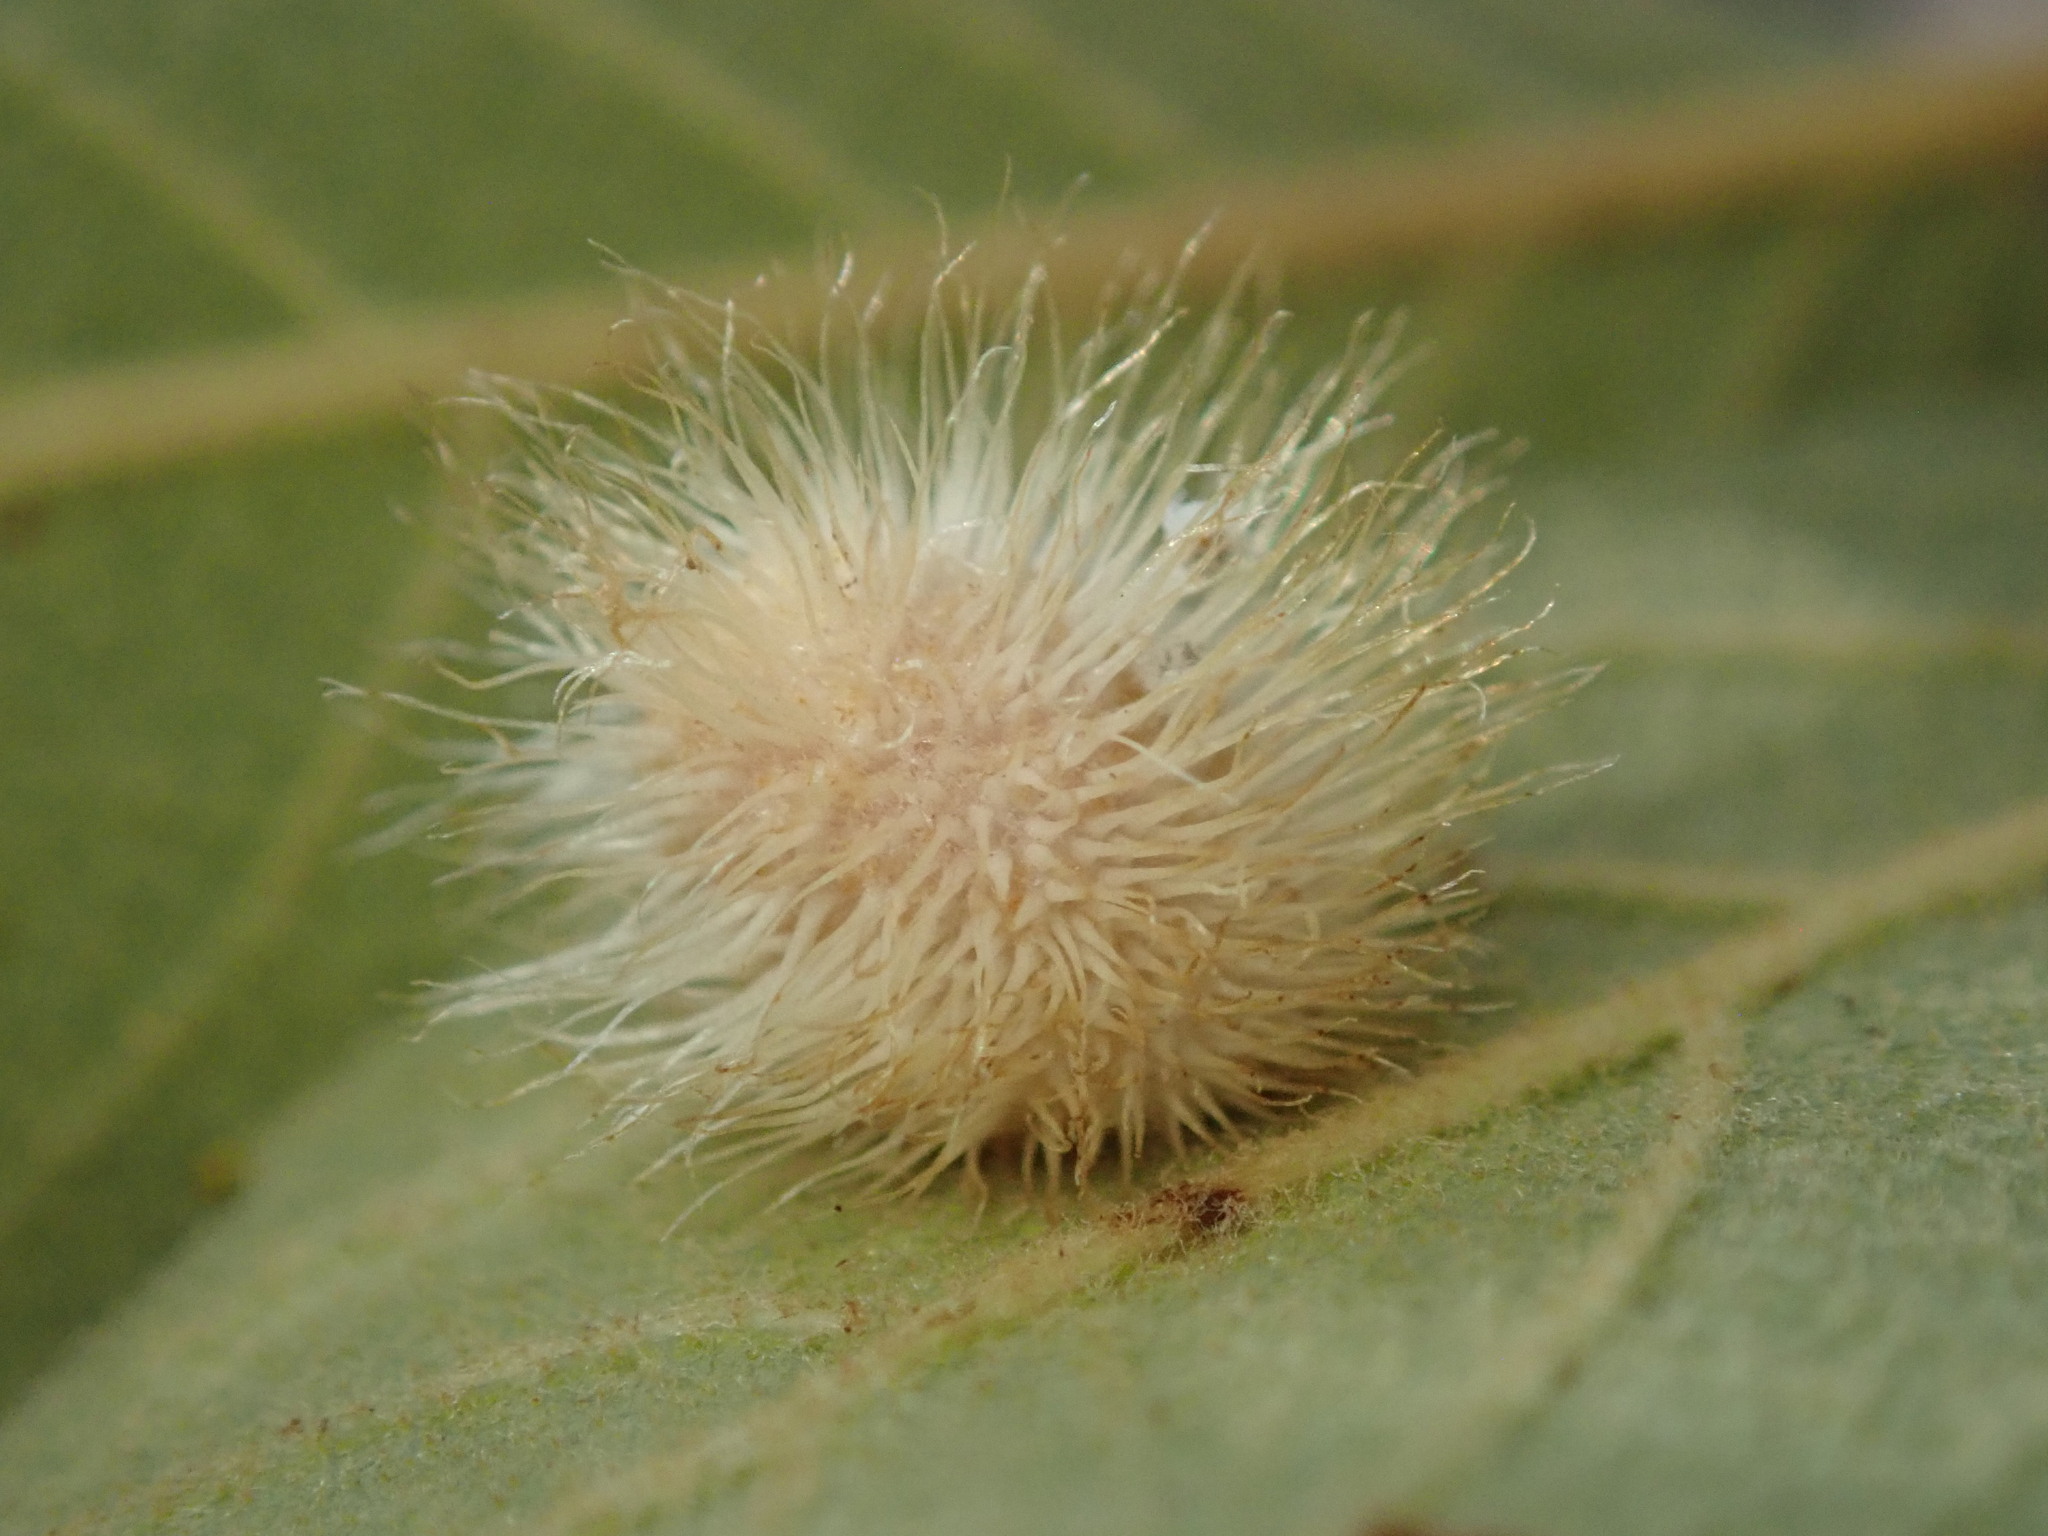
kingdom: Animalia
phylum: Arthropoda
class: Insecta
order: Hymenoptera
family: Cynipidae
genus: Andricus
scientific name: Andricus
